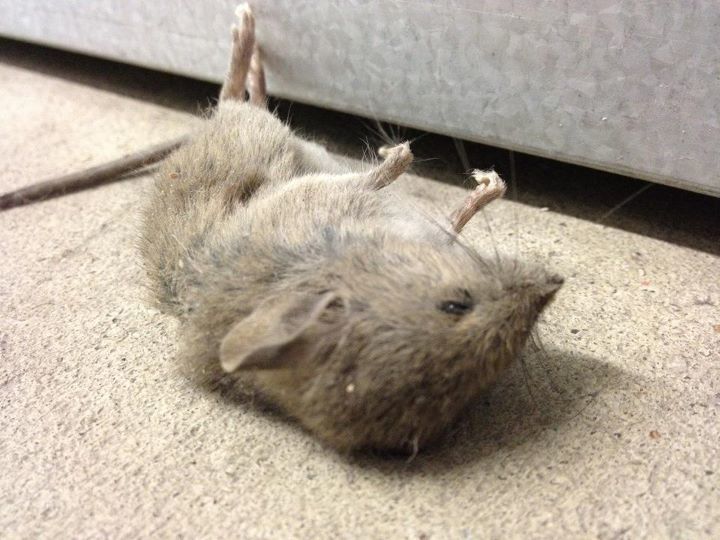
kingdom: Animalia
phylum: Chordata
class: Mammalia
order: Rodentia
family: Muridae
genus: Mus
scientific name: Mus musculus
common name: House mouse
